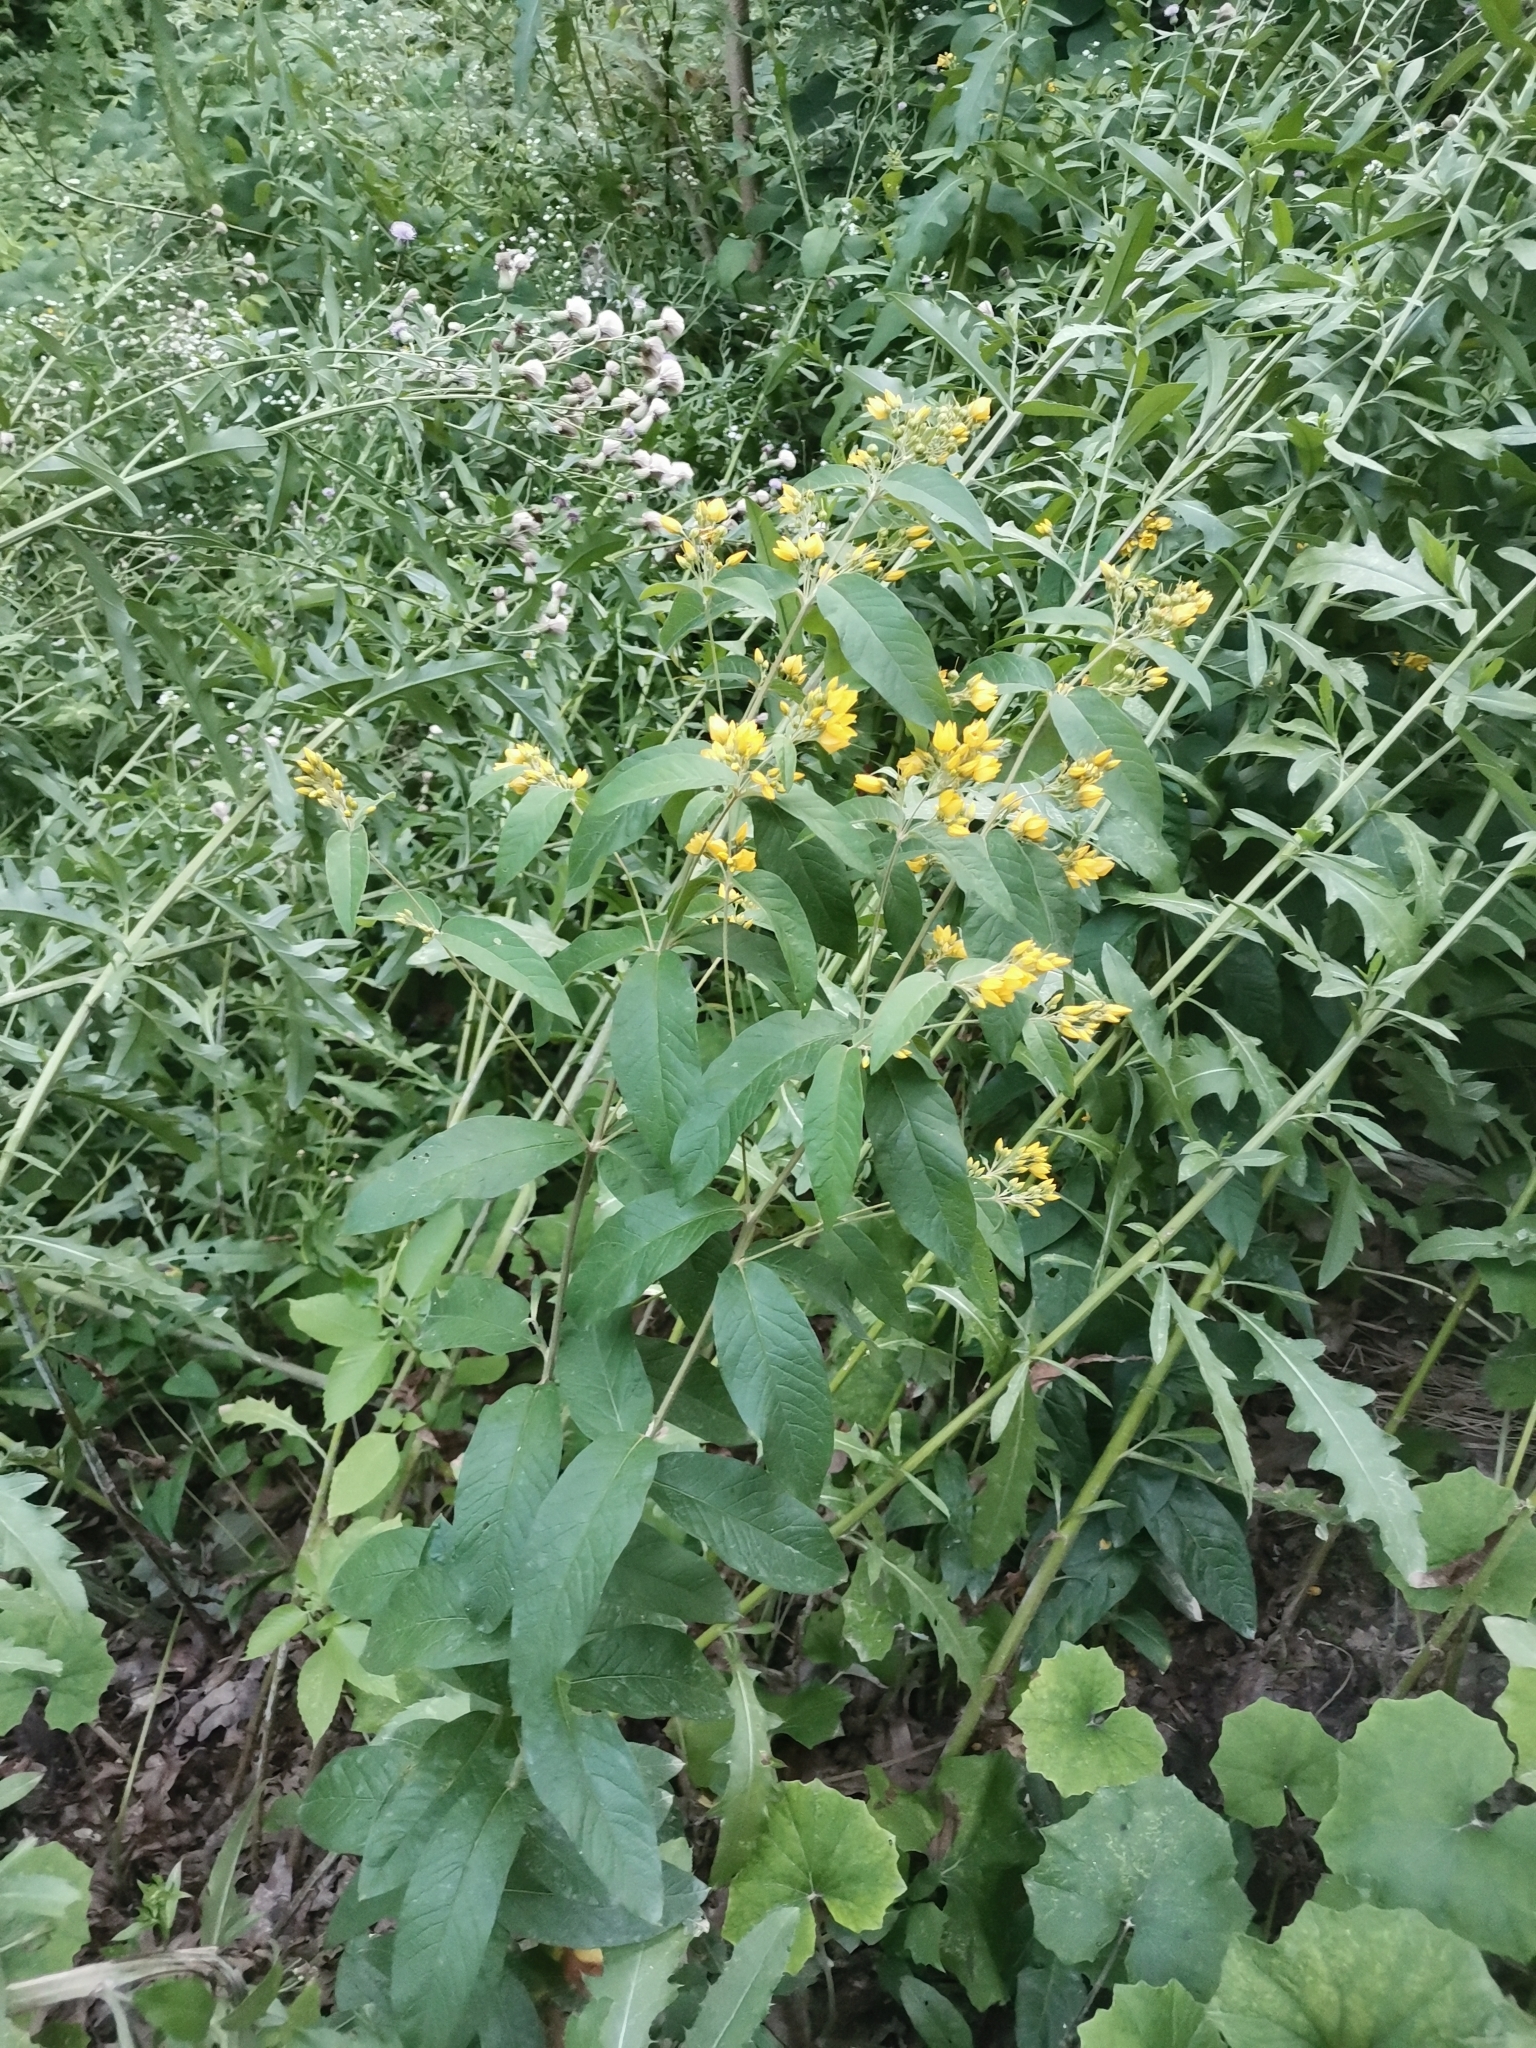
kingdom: Plantae
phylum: Tracheophyta
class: Magnoliopsida
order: Ericales
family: Primulaceae
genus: Lysimachia
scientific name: Lysimachia vulgaris
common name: Yellow loosestrife
